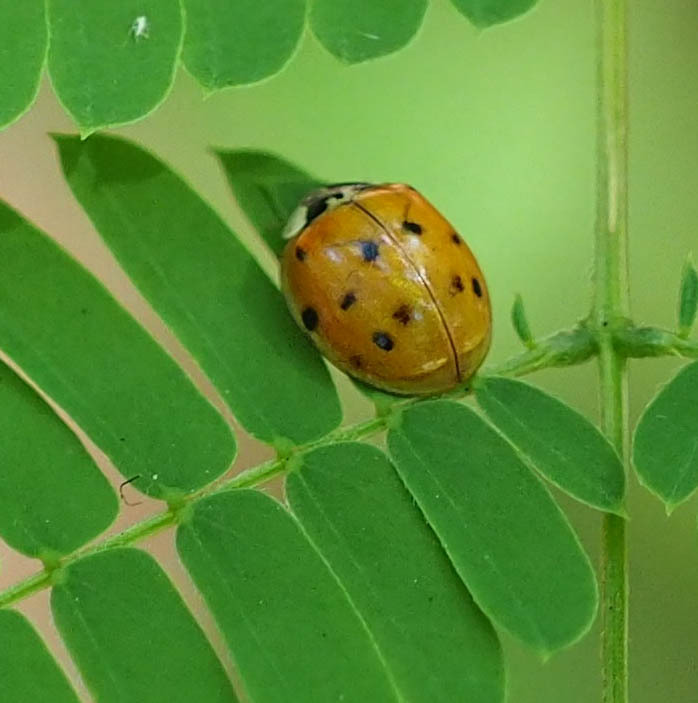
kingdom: Animalia
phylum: Arthropoda
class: Insecta
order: Coleoptera
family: Coccinellidae
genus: Harmonia
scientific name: Harmonia axyridis
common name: Harlequin ladybird
